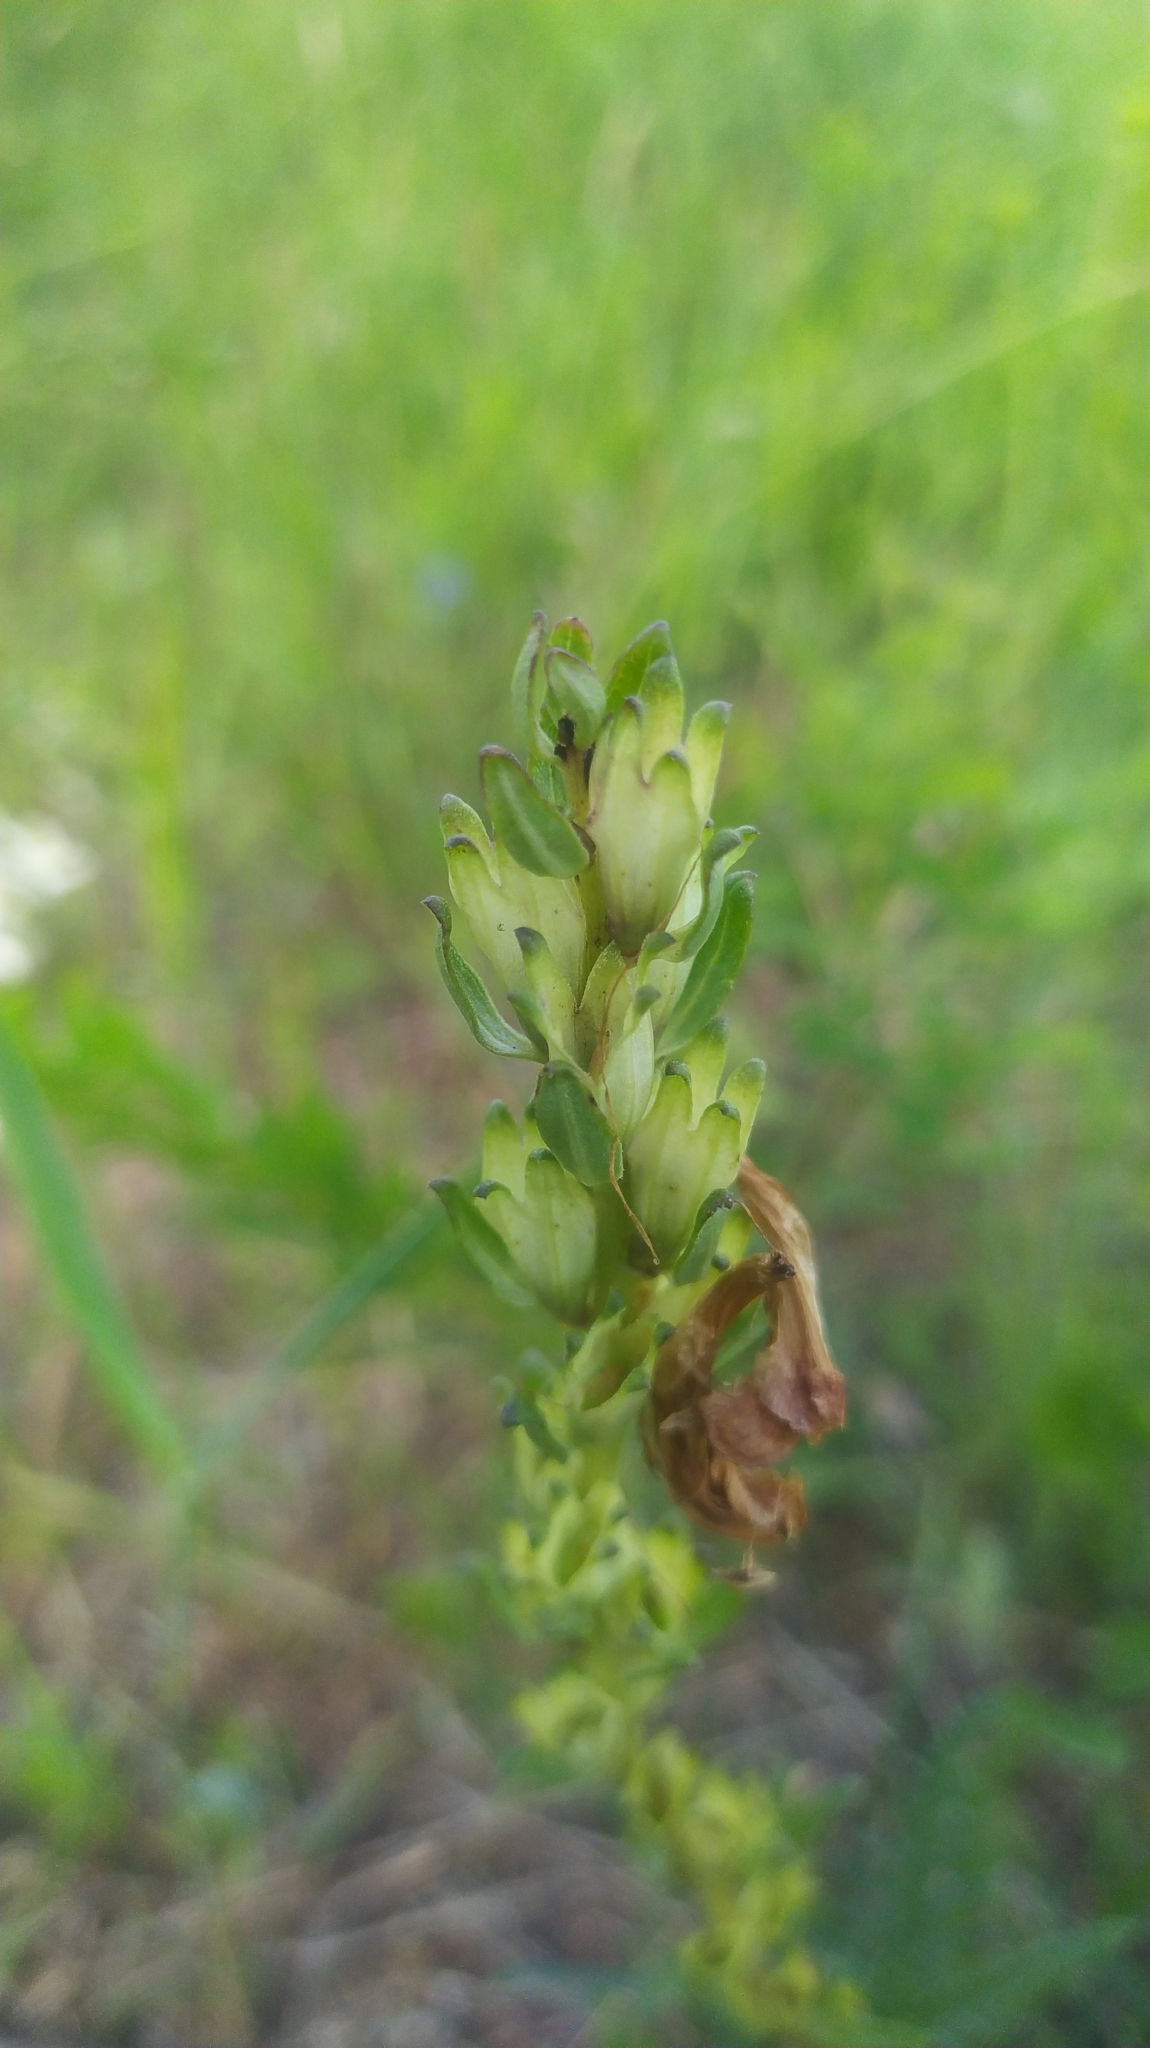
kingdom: Plantae
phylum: Tracheophyta
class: Magnoliopsida
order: Lamiales
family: Orobanchaceae
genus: Pedicularis
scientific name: Pedicularis sceptrum-carolinum
